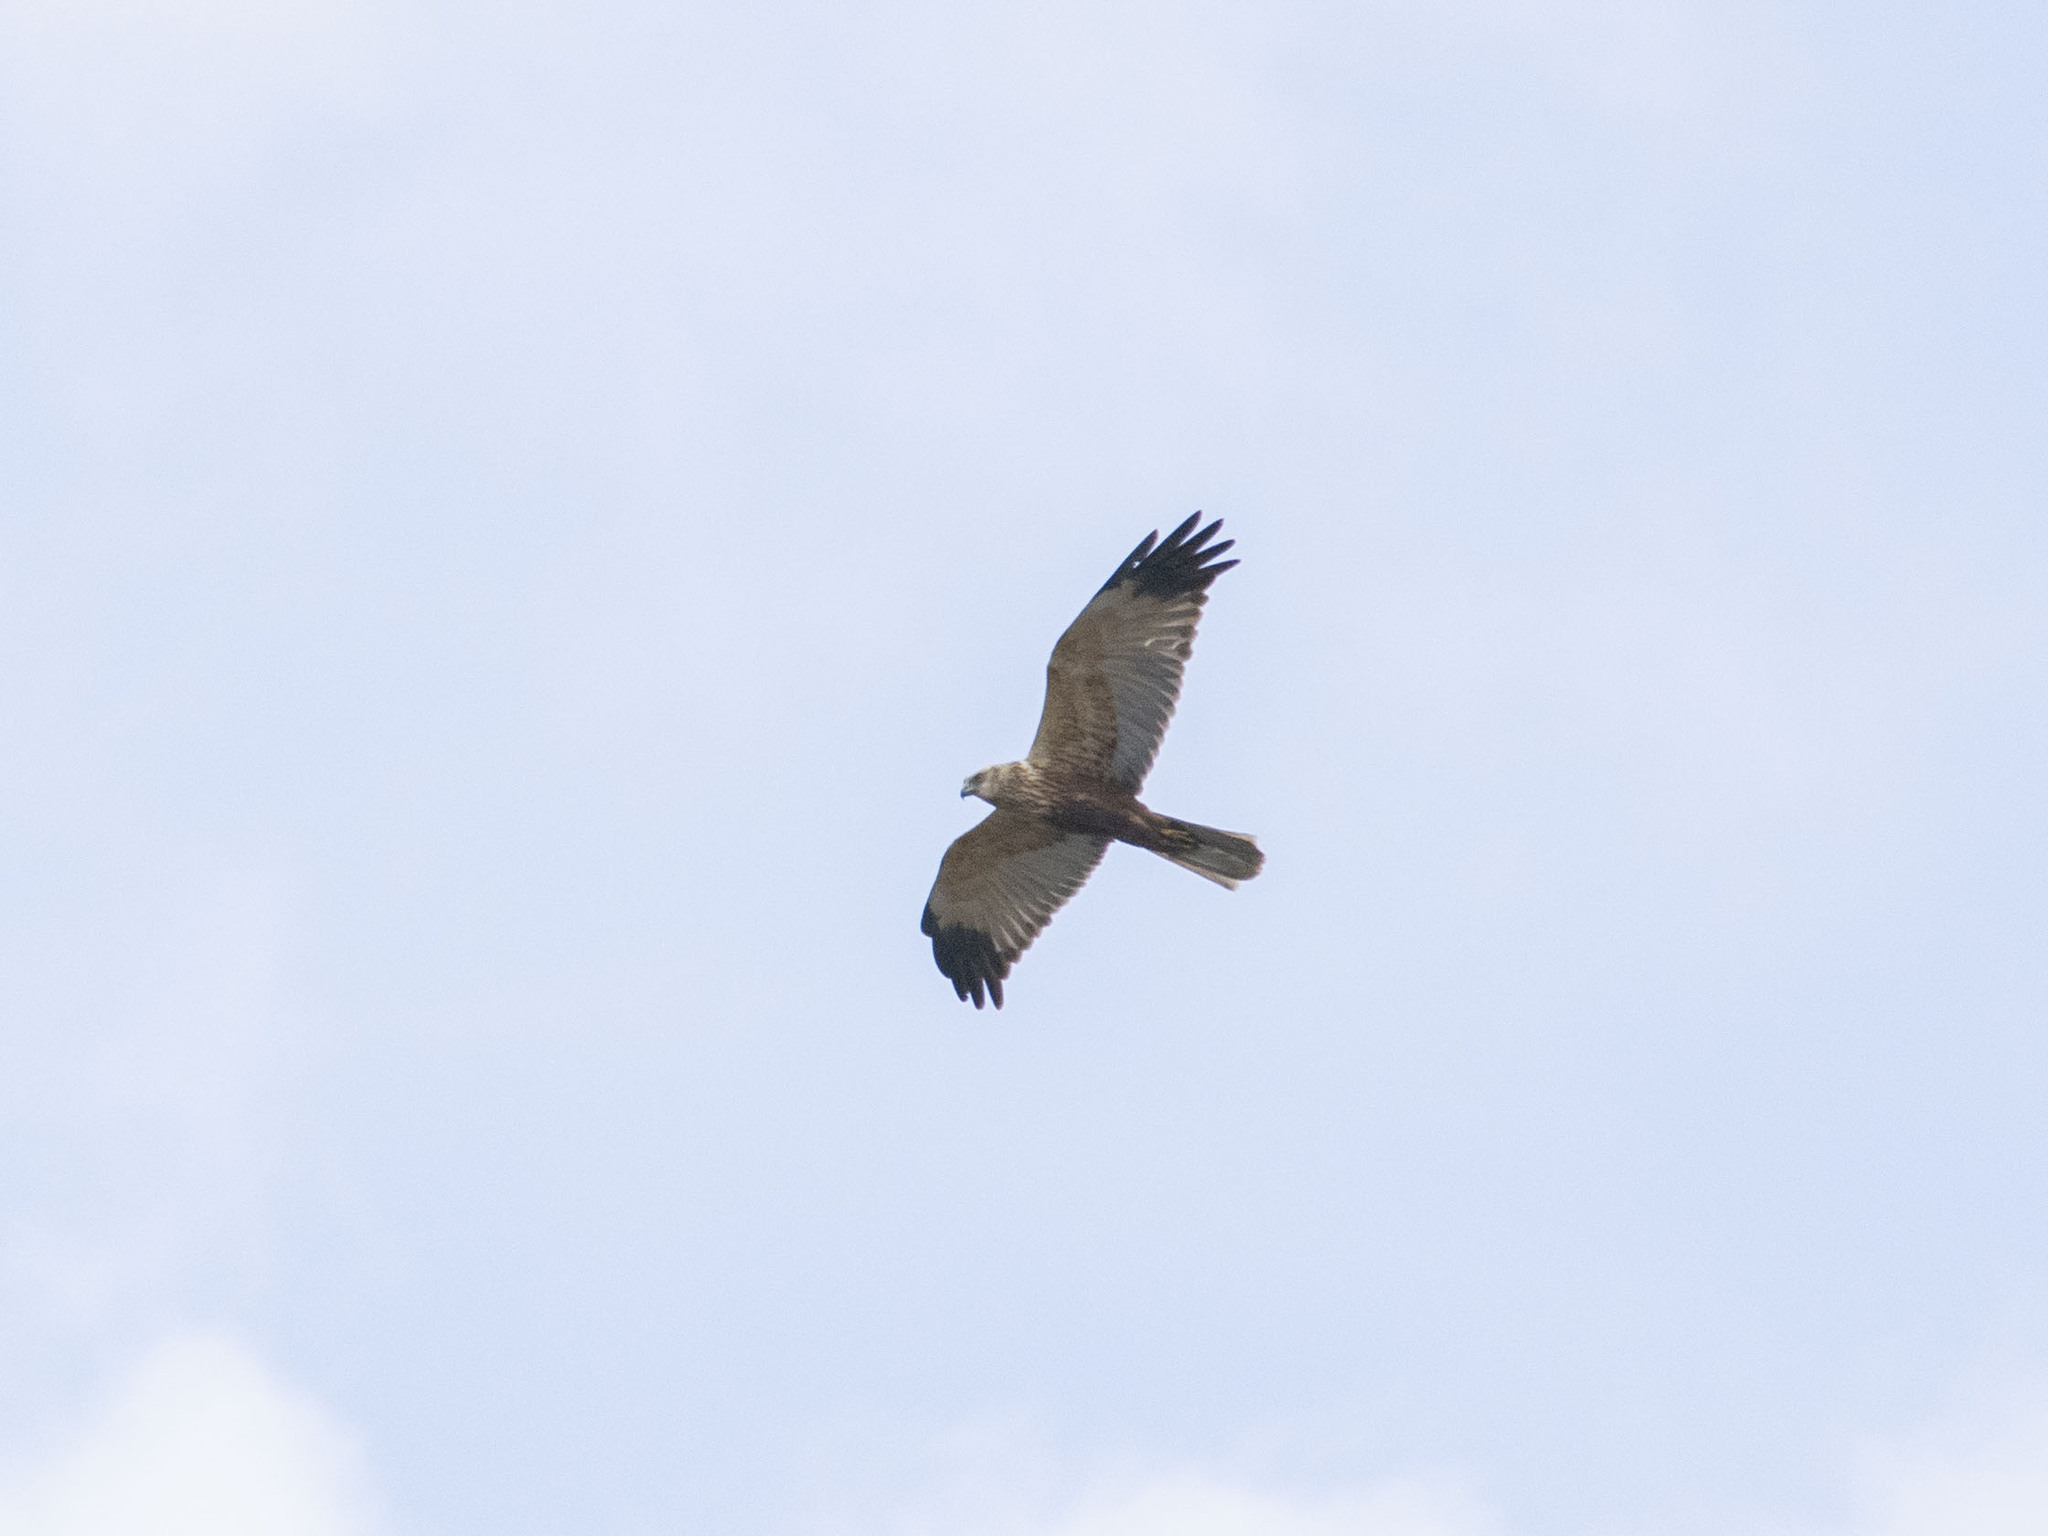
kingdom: Animalia
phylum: Chordata
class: Aves
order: Accipitriformes
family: Accipitridae
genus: Circus
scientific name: Circus aeruginosus
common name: Western marsh harrier
